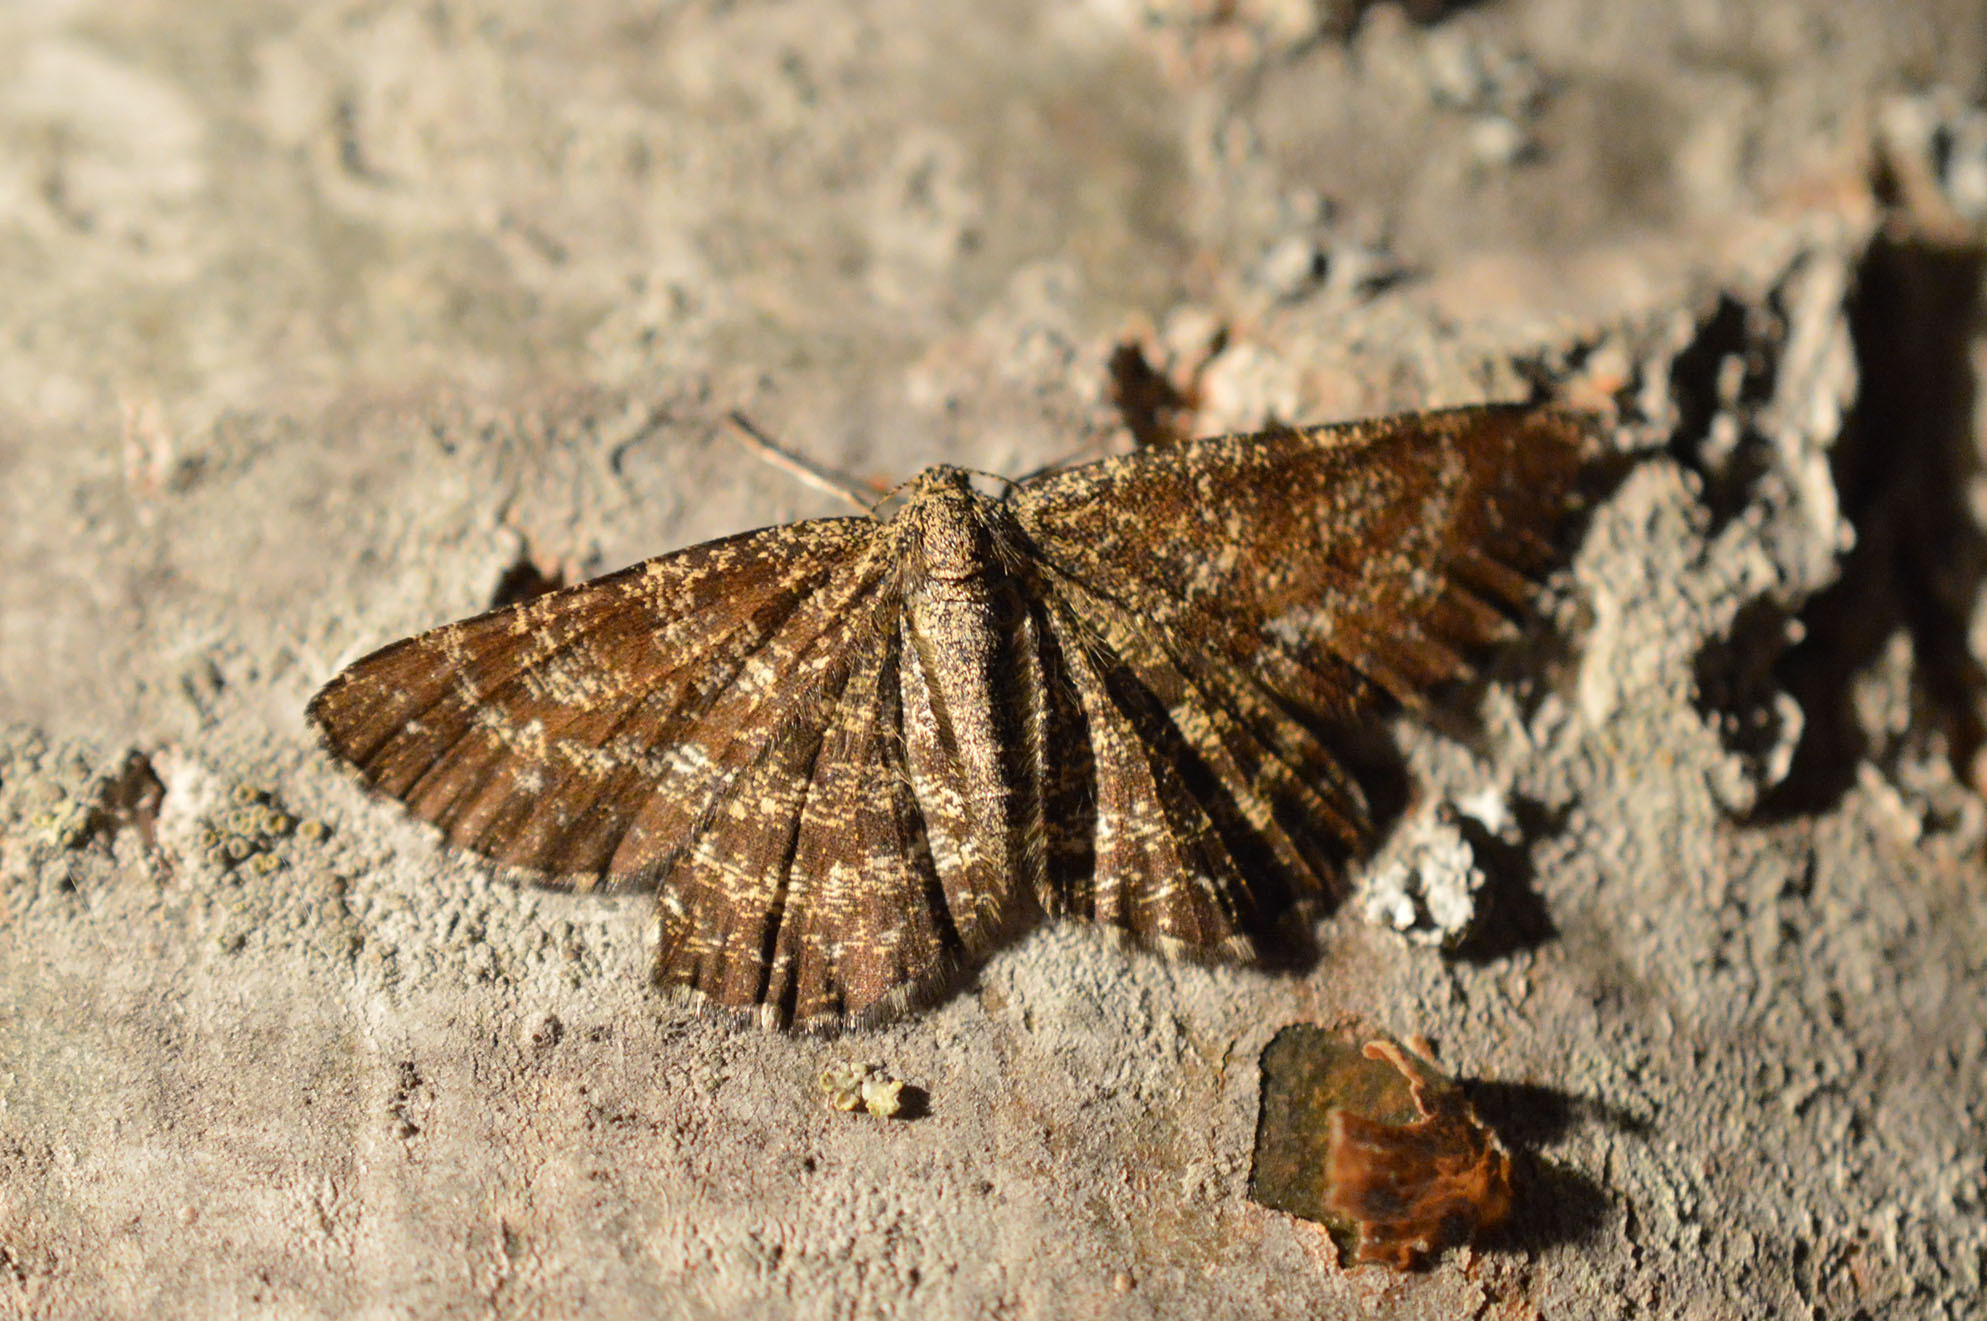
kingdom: Animalia
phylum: Arthropoda
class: Insecta
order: Lepidoptera
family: Geometridae
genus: Ematurga
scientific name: Ematurga atomaria
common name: Common heath
